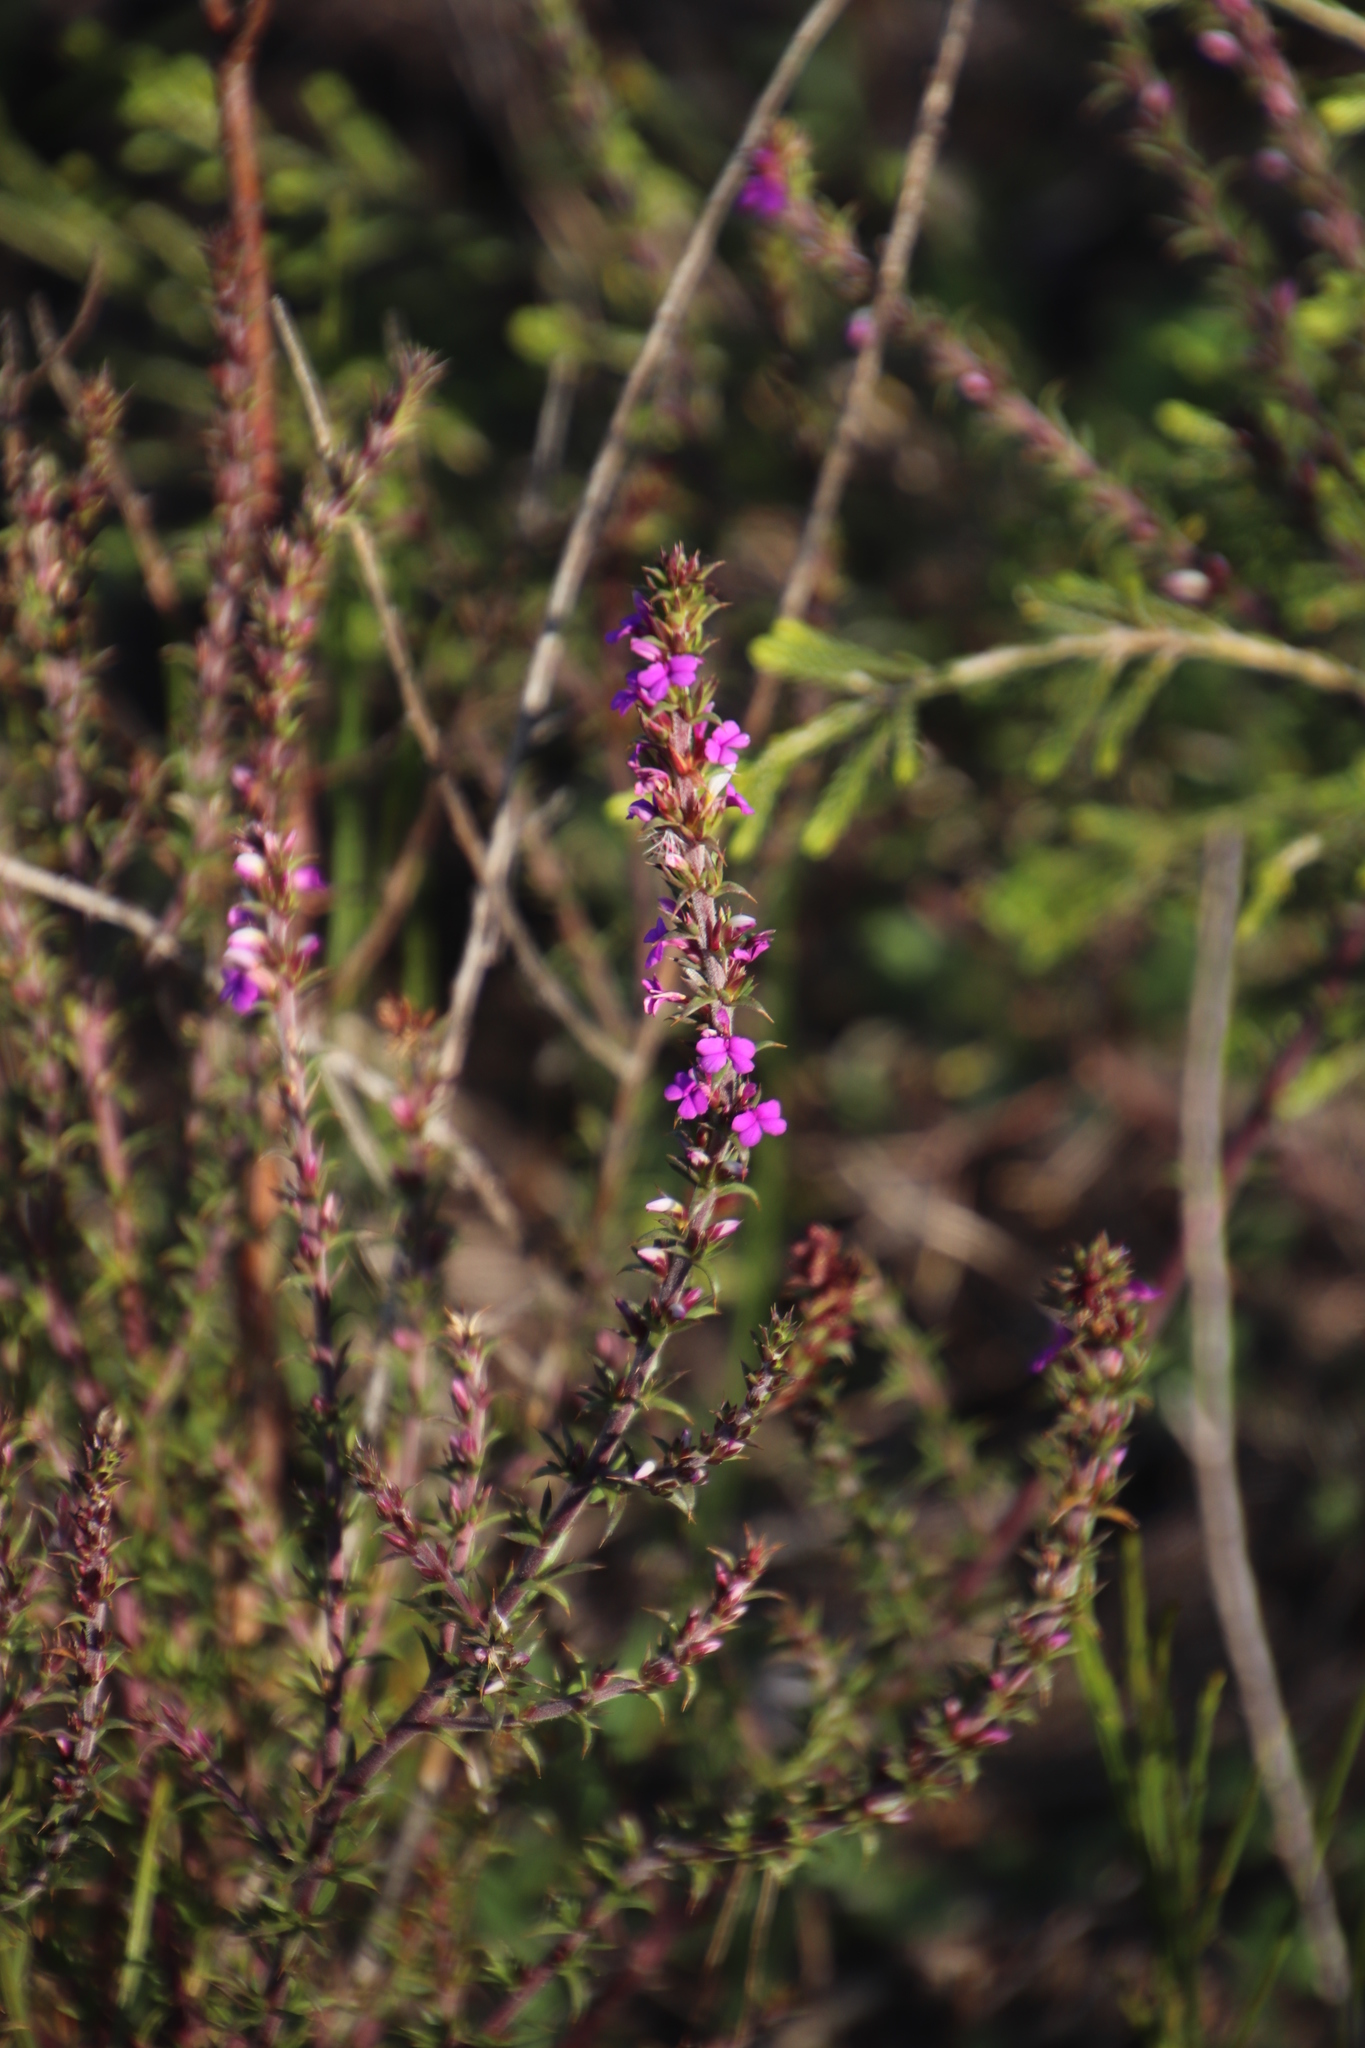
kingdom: Plantae
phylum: Tracheophyta
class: Magnoliopsida
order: Fabales
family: Polygalaceae
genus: Muraltia
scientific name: Muraltia heisteria
